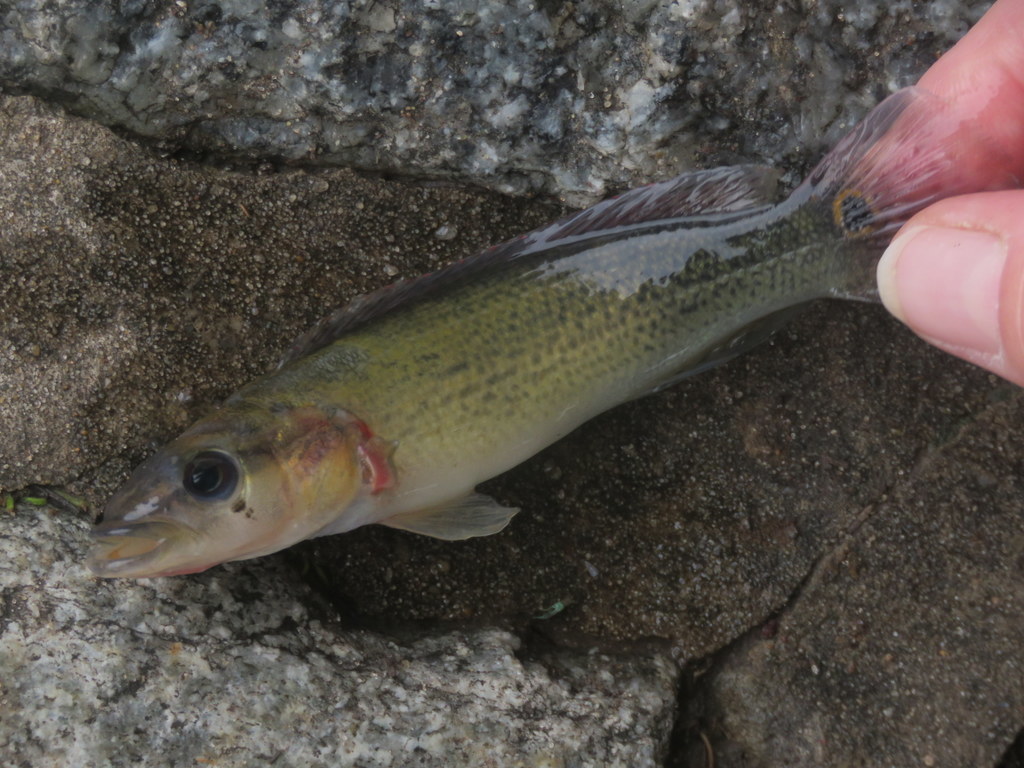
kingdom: Animalia
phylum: Chordata
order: Perciformes
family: Cichlidae
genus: Crenicichla
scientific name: Crenicichla scottii
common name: Pike cichlid
